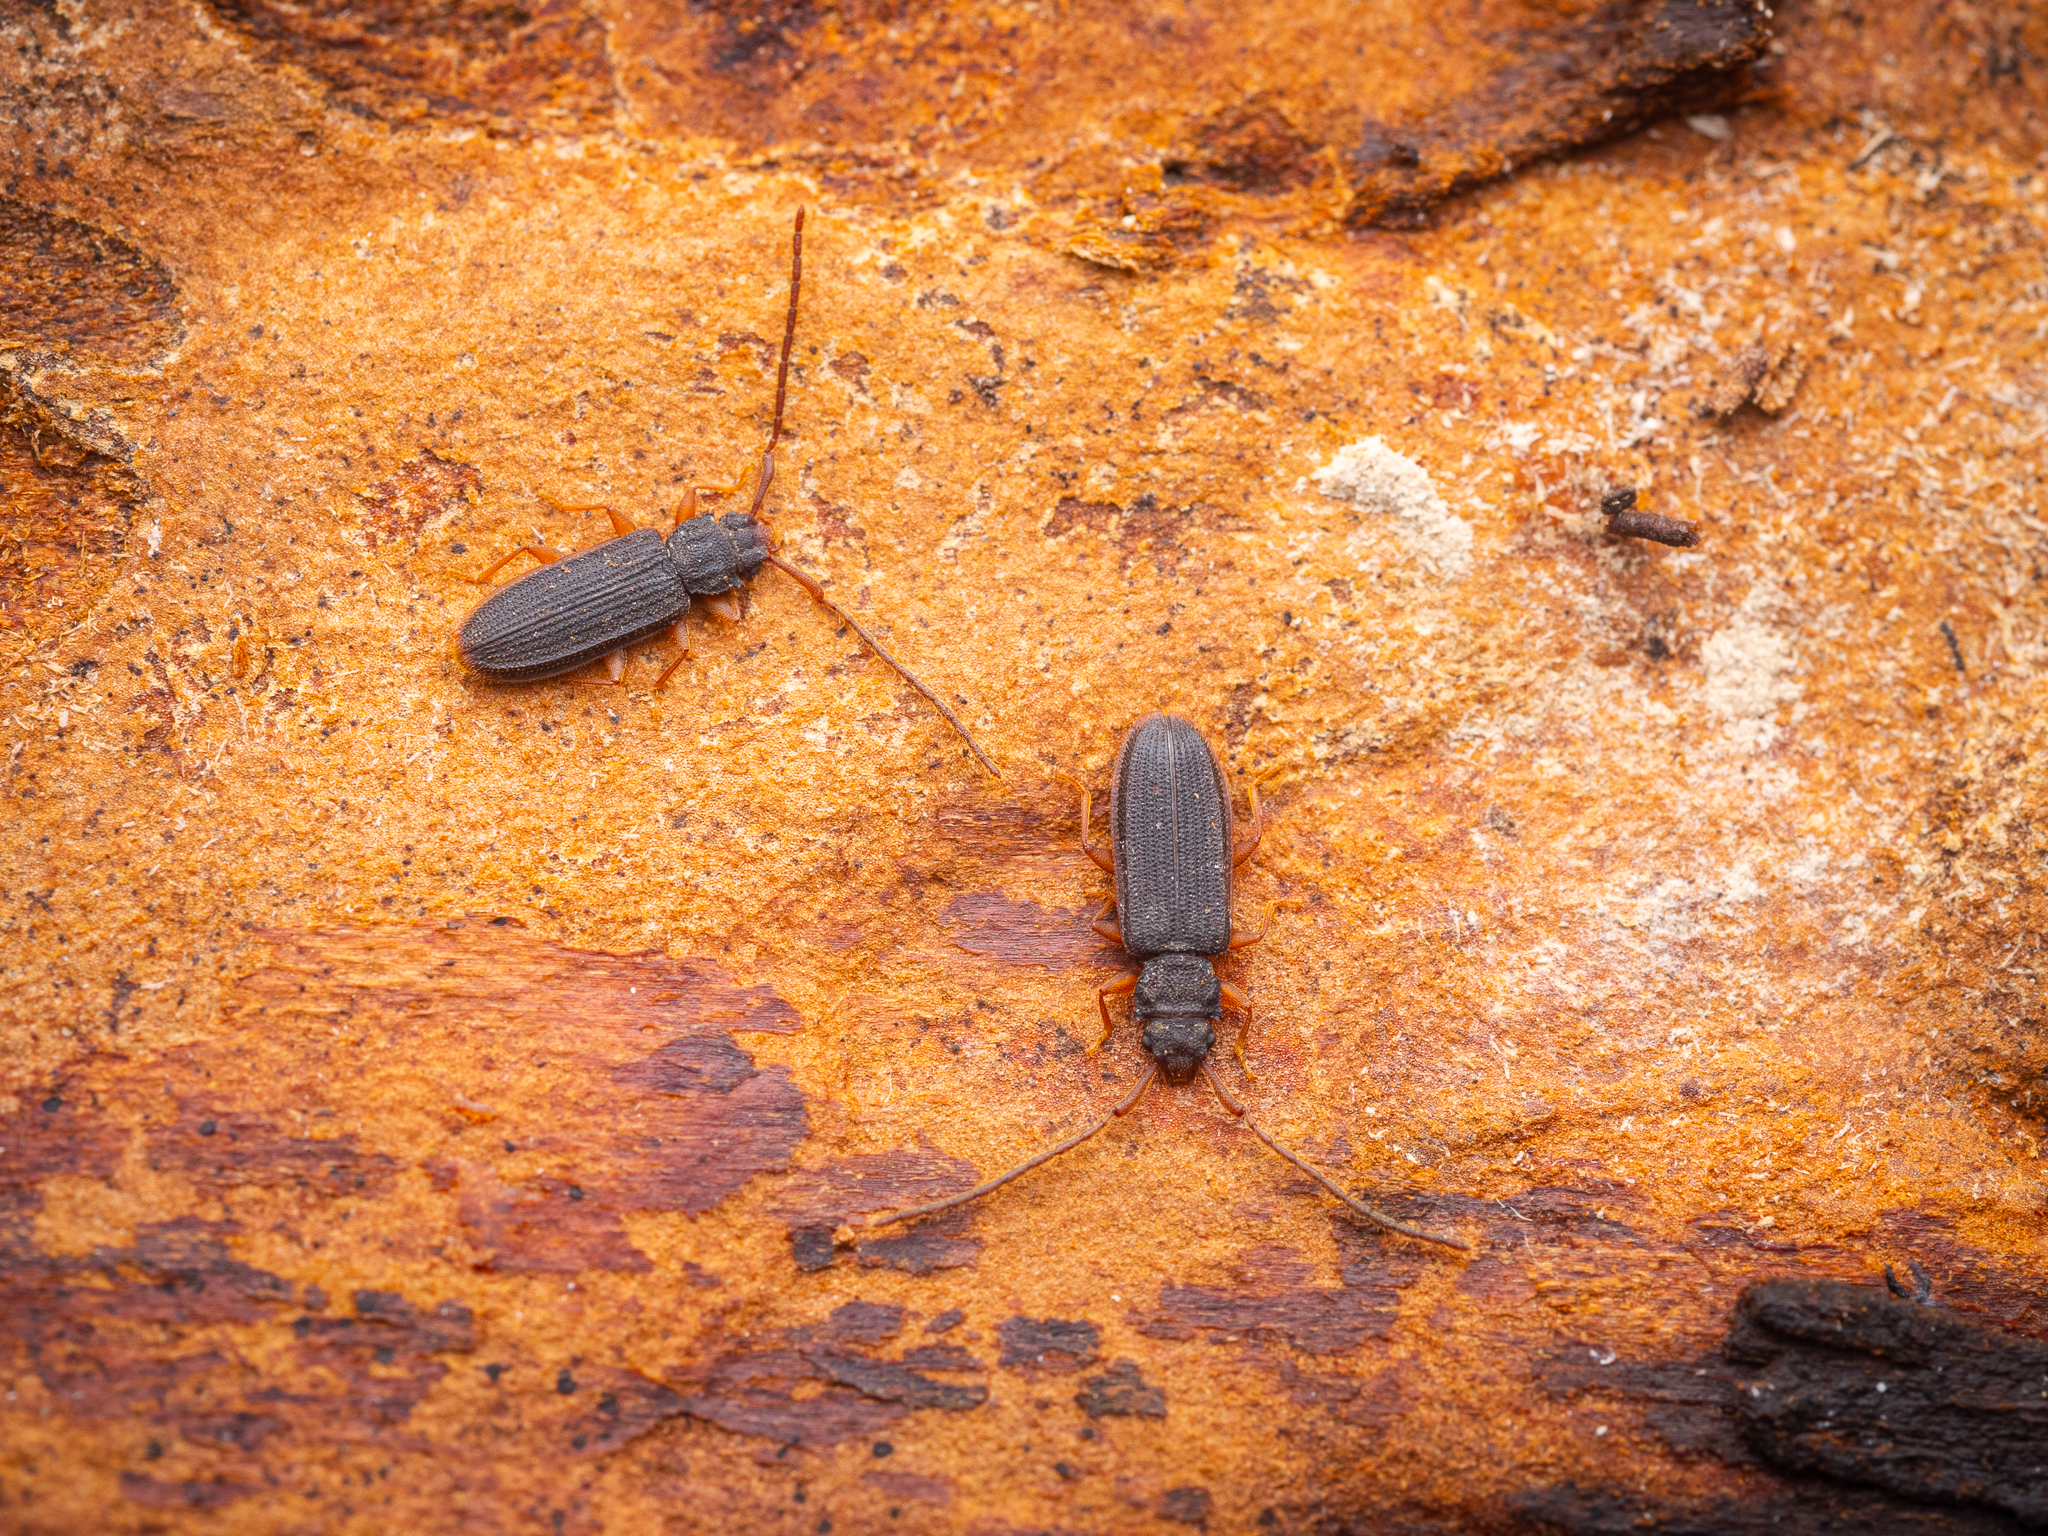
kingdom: Animalia
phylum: Arthropoda
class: Insecta
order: Coleoptera
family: Silvanidae
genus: Uleiota
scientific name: Uleiota planatus
